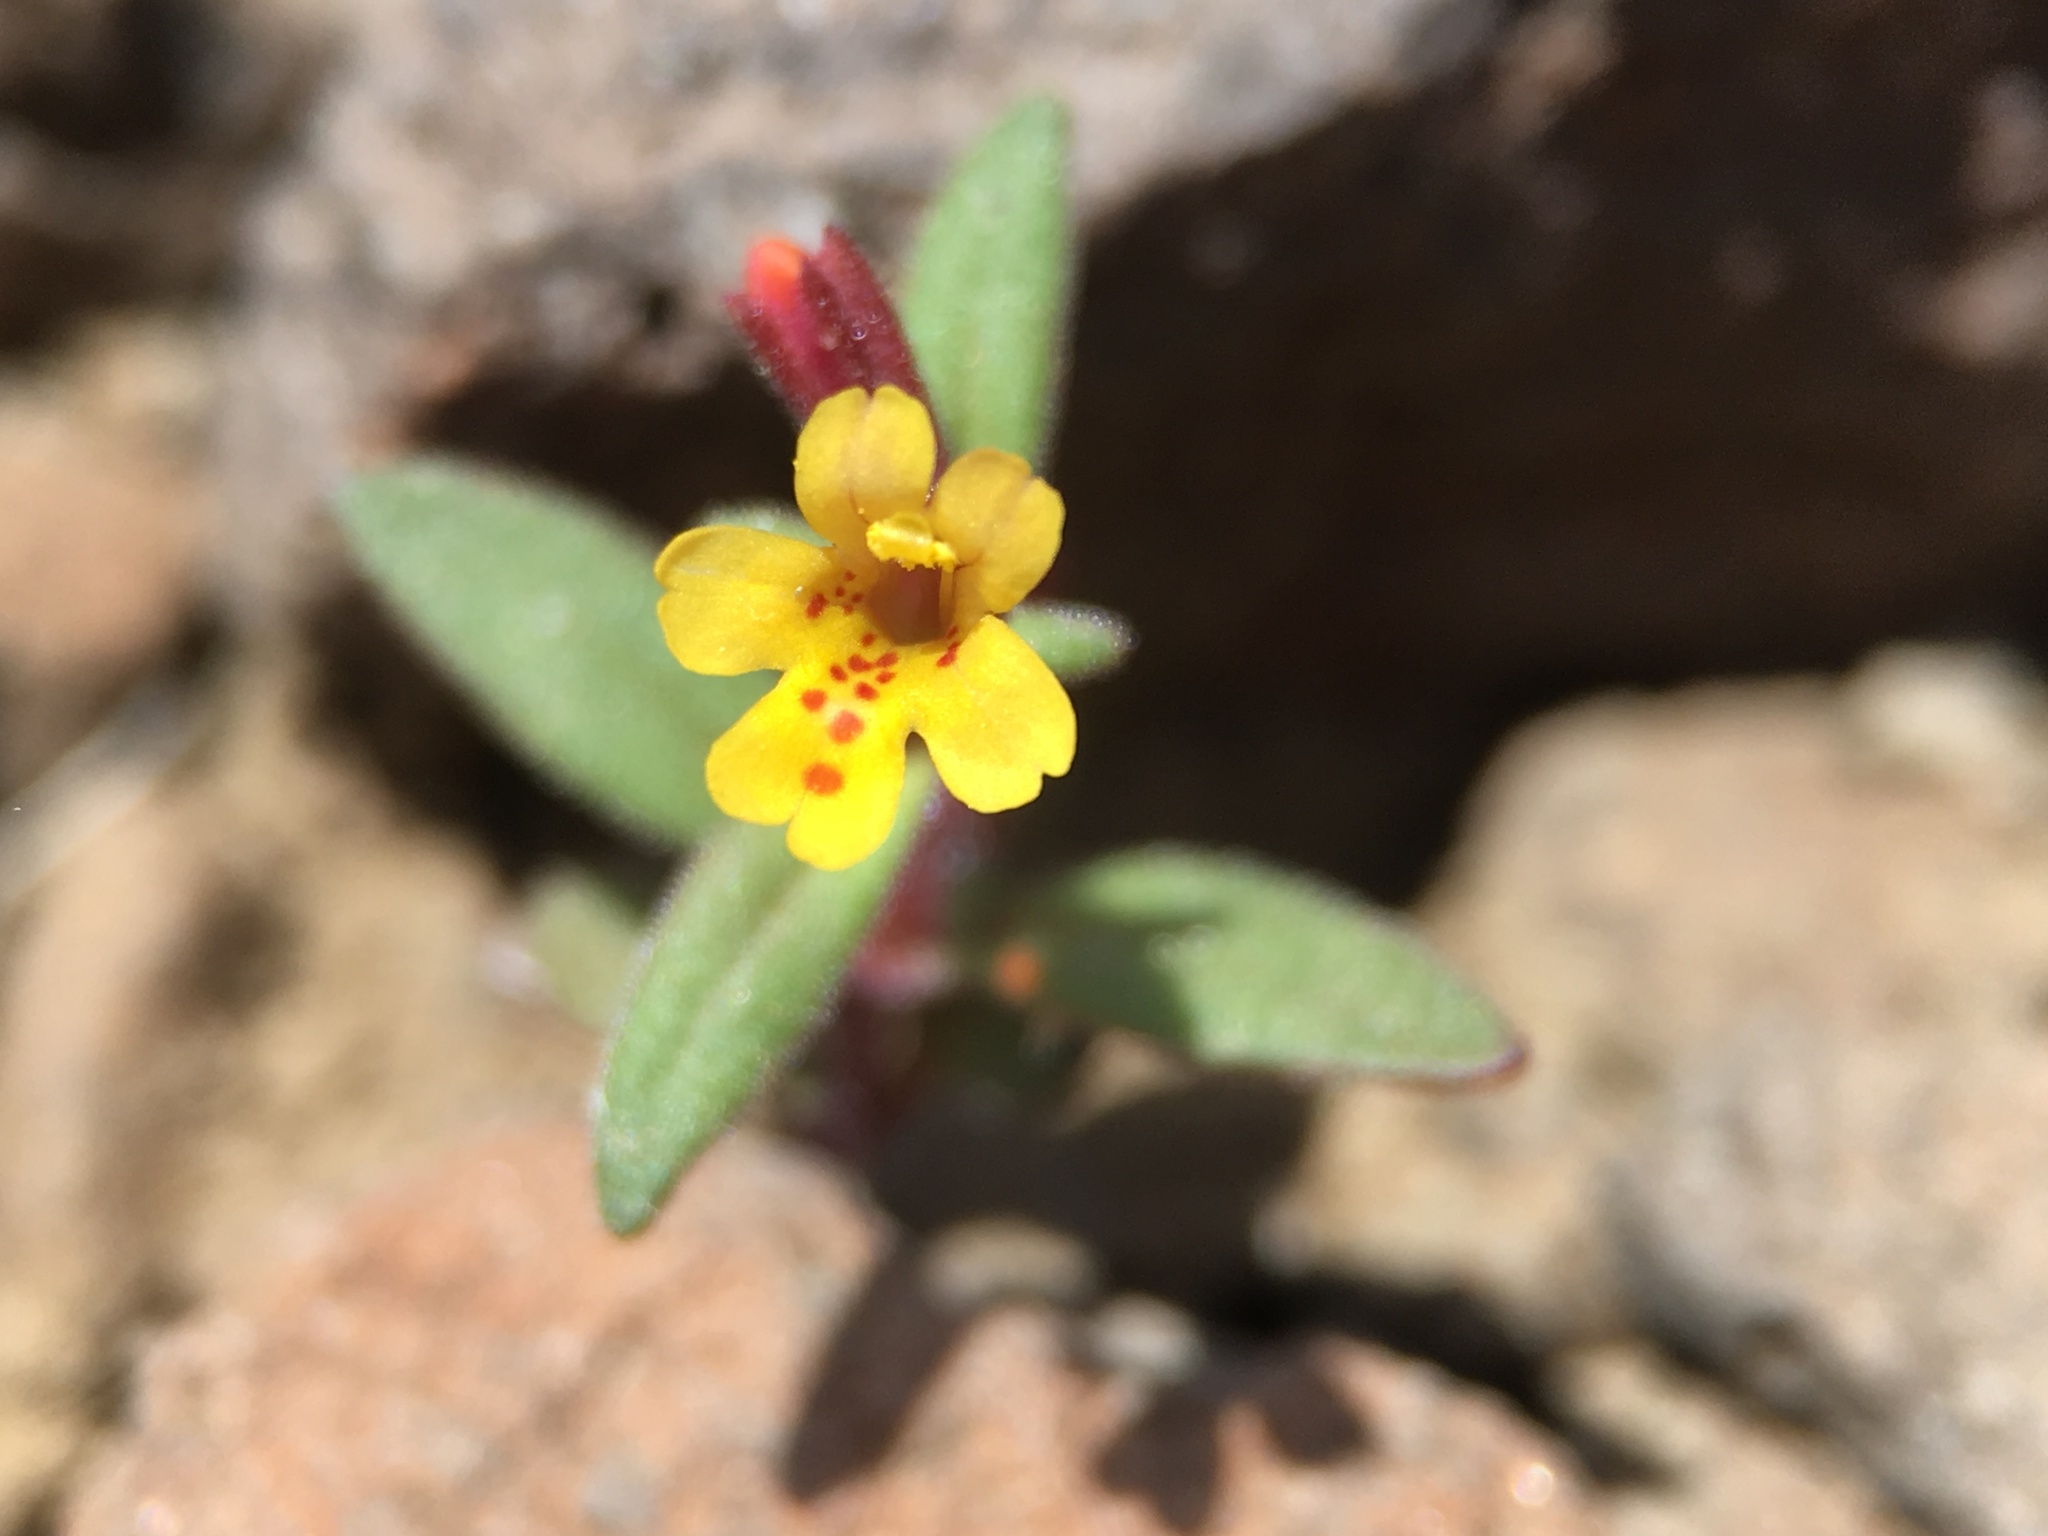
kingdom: Plantae
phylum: Tracheophyta
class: Magnoliopsida
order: Lamiales
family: Phrymaceae
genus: Erythranthe
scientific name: Erythranthe rubella
